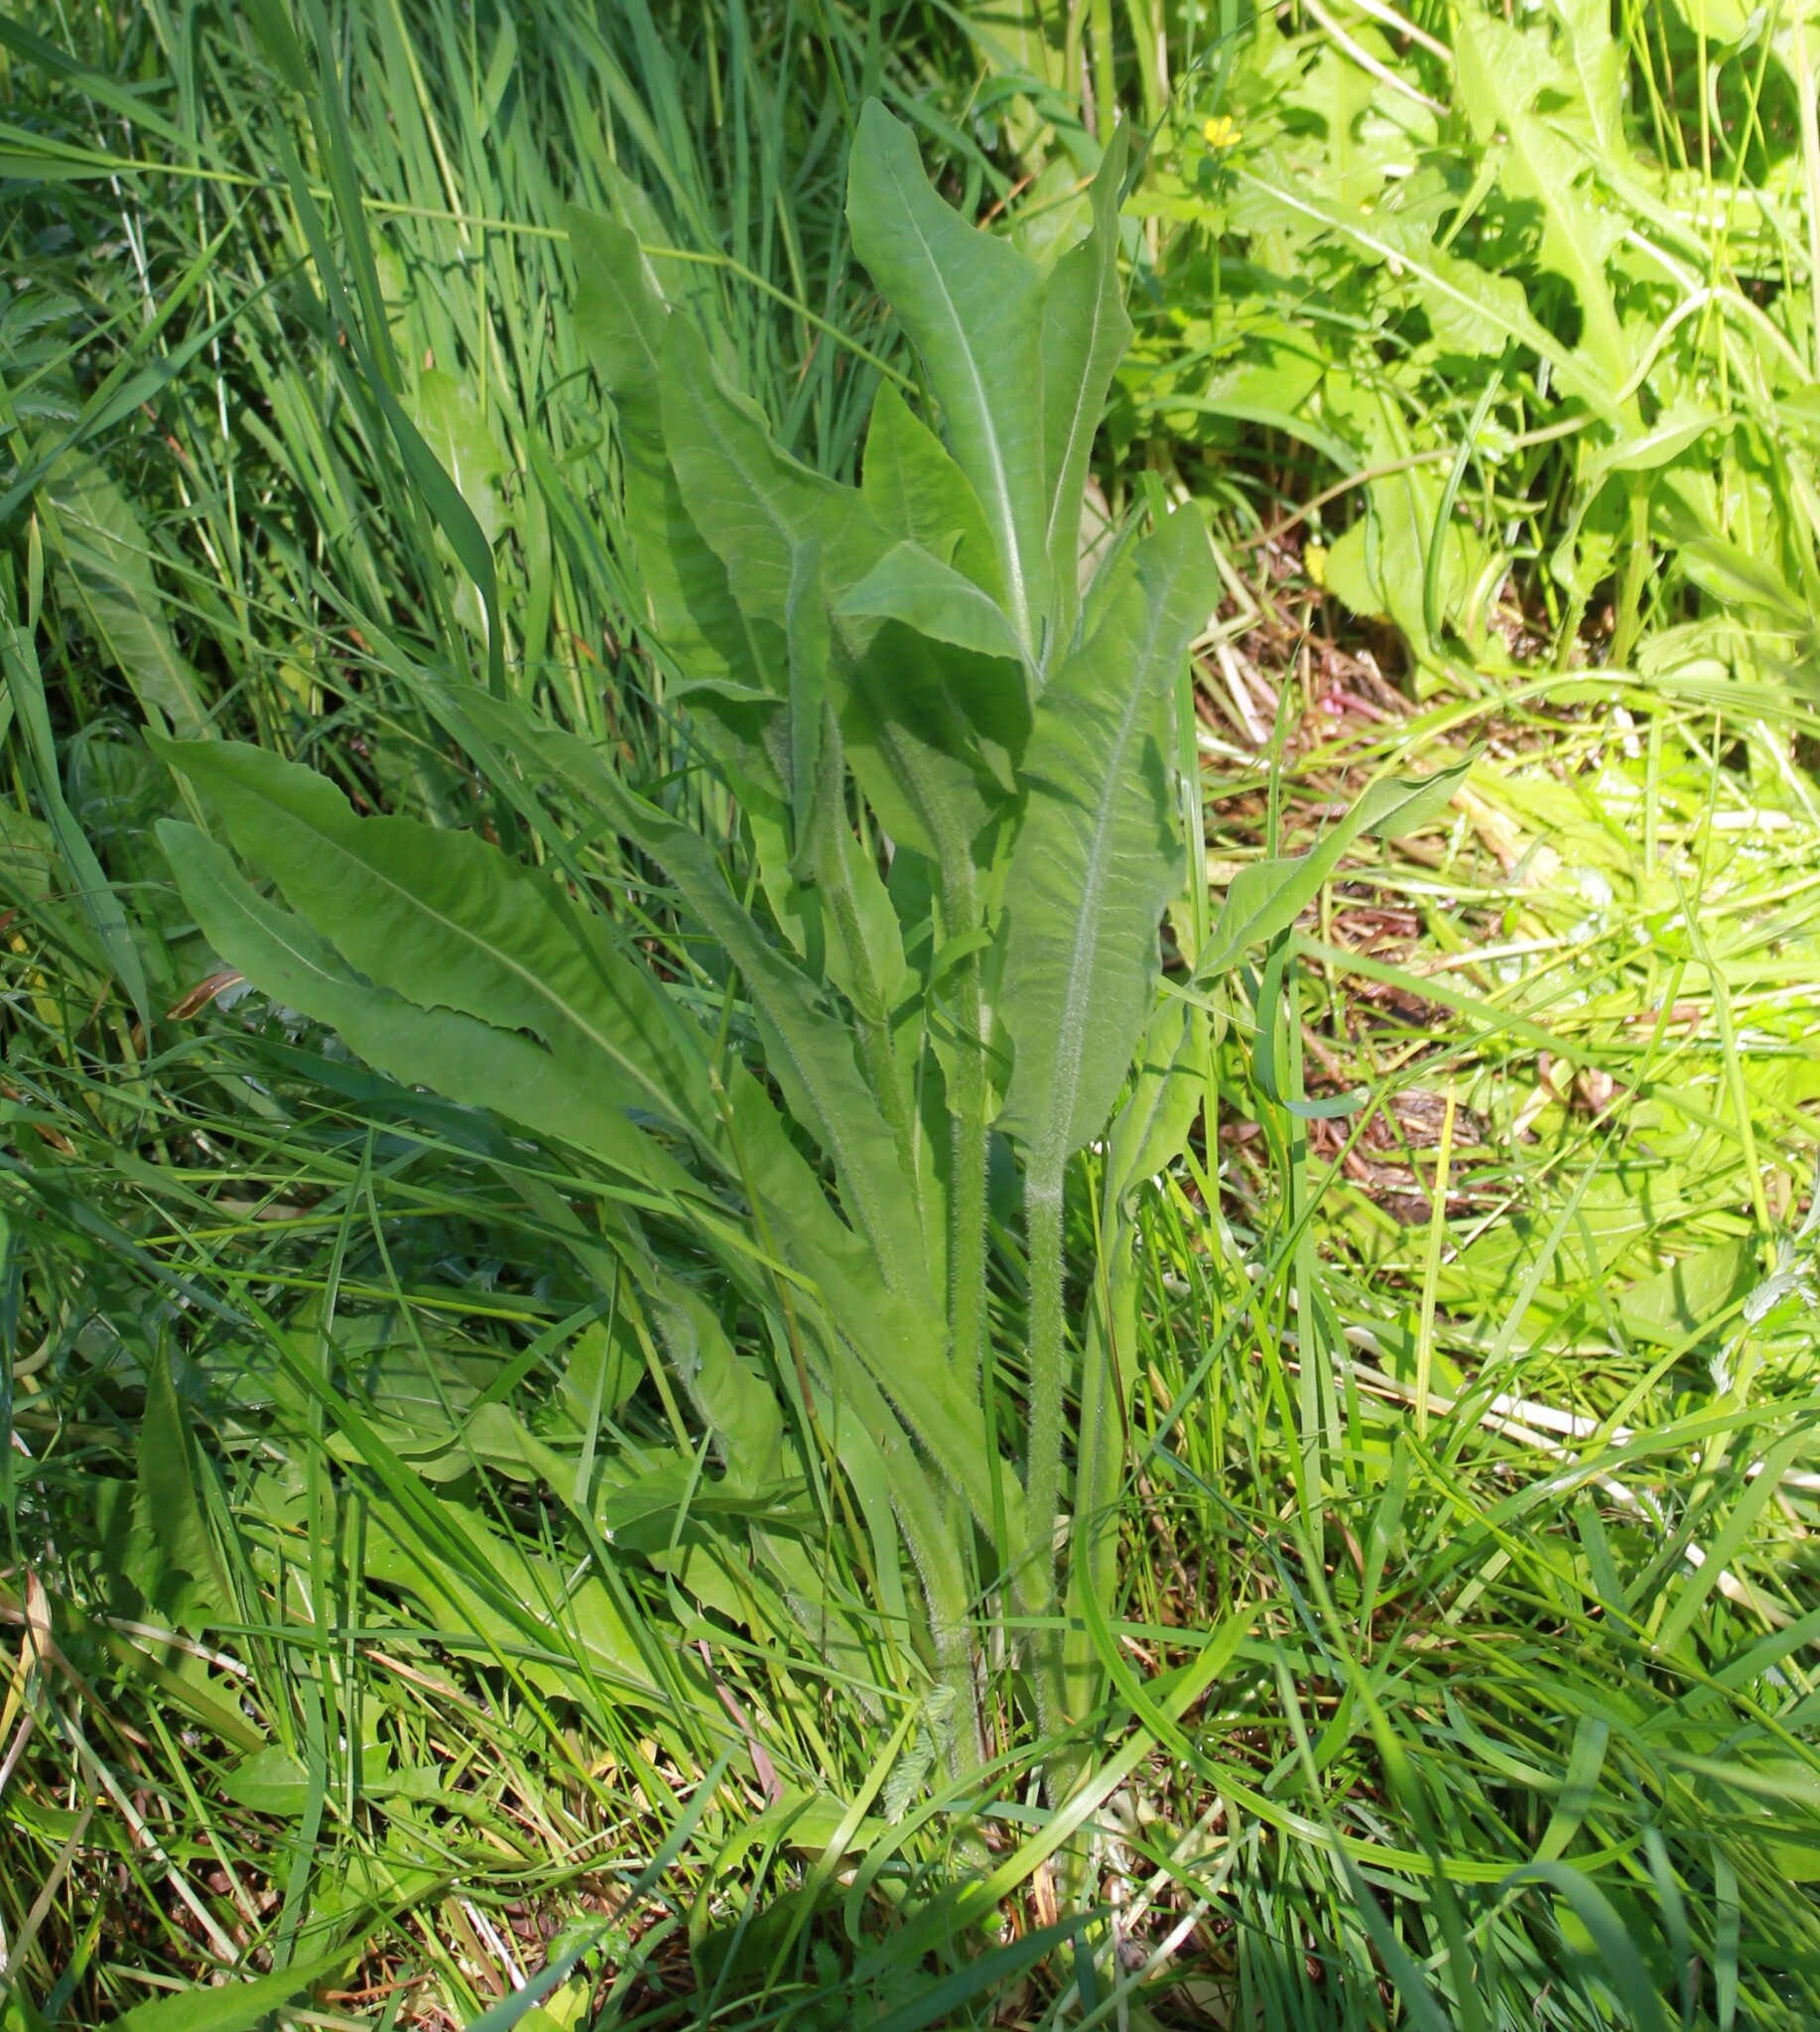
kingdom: Plantae
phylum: Tracheophyta
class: Magnoliopsida
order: Asterales
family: Asteraceae
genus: Cichorium
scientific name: Cichorium intybus
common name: Chicory
